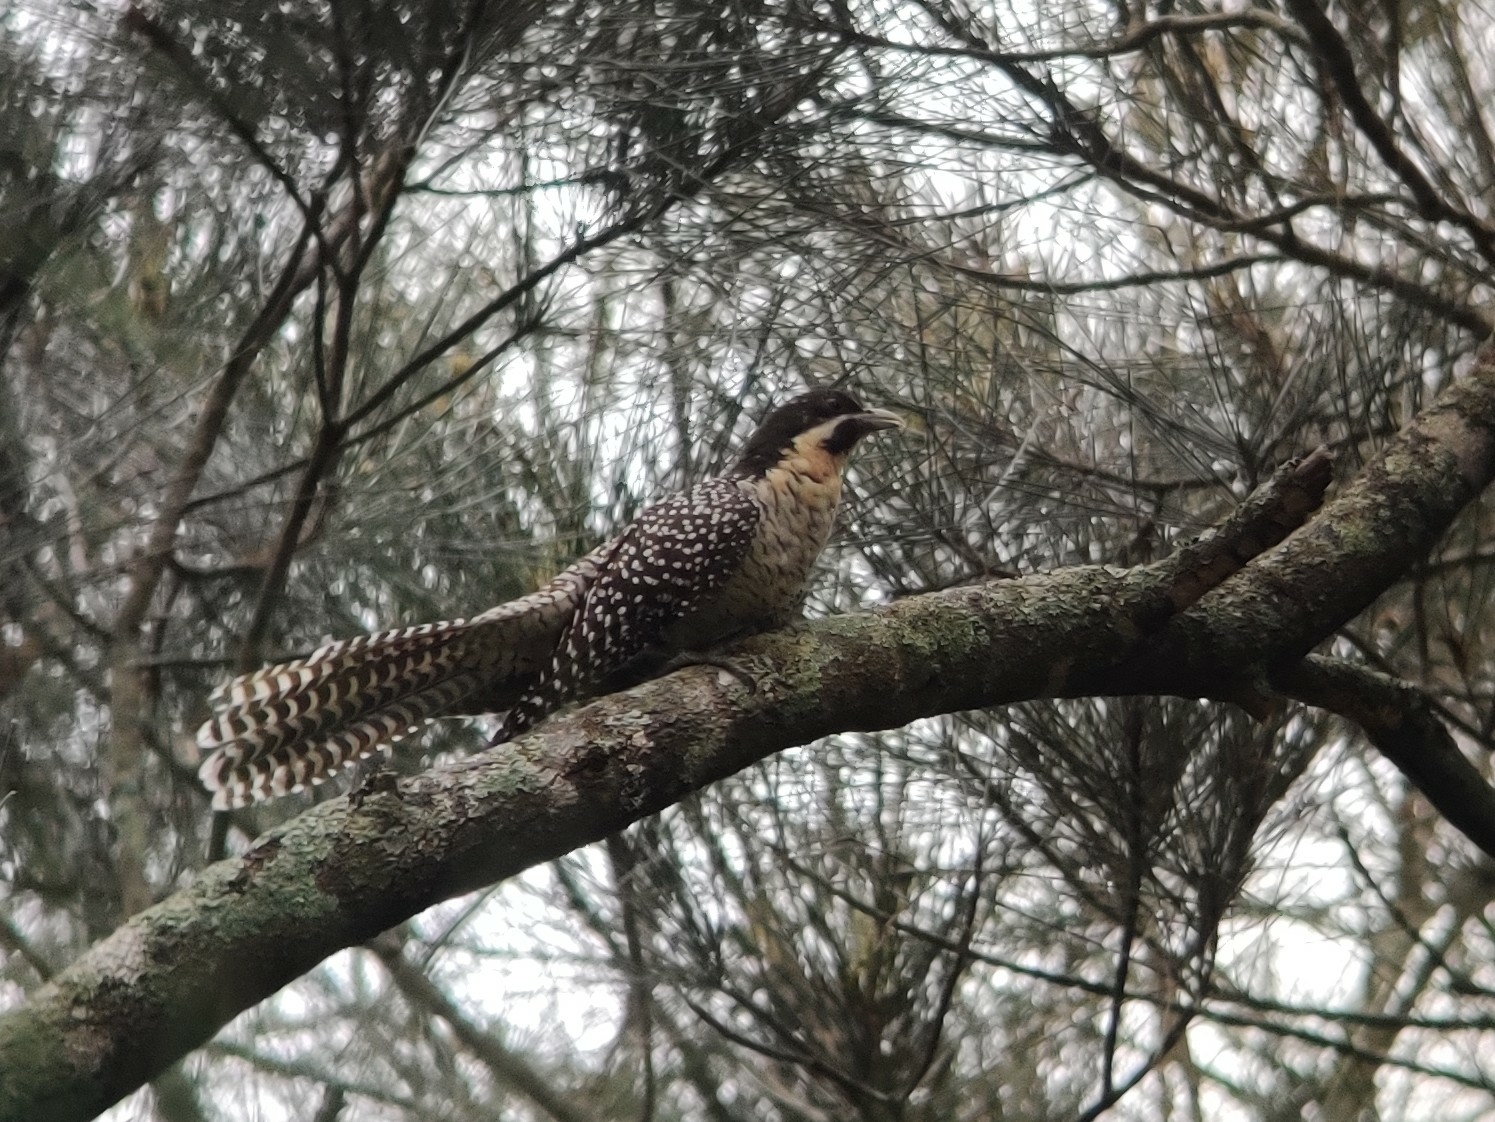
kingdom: Animalia
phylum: Chordata
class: Aves
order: Cuculiformes
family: Cuculidae
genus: Eudynamys
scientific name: Eudynamys orientalis
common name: Pacific koel
